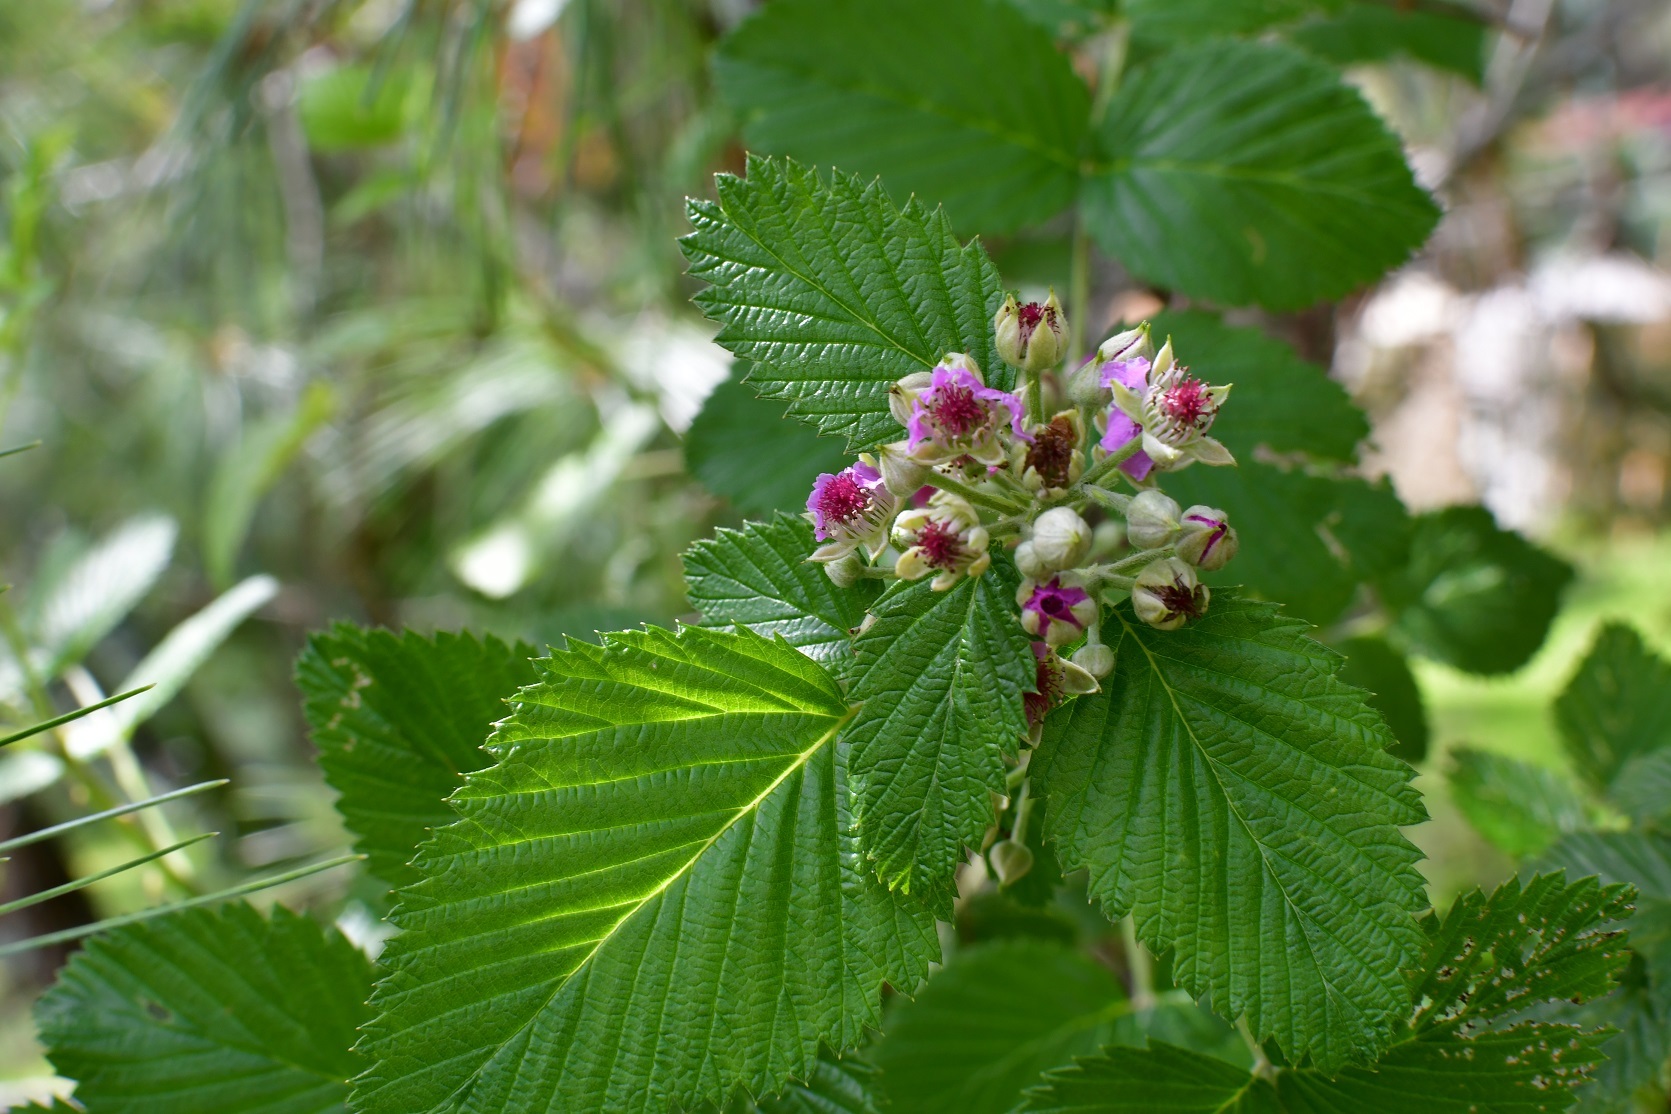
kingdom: Plantae
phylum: Tracheophyta
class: Magnoliopsida
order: Rosales
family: Rosaceae
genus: Rubus
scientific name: Rubus niveus
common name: Snowpeaks raspberry
